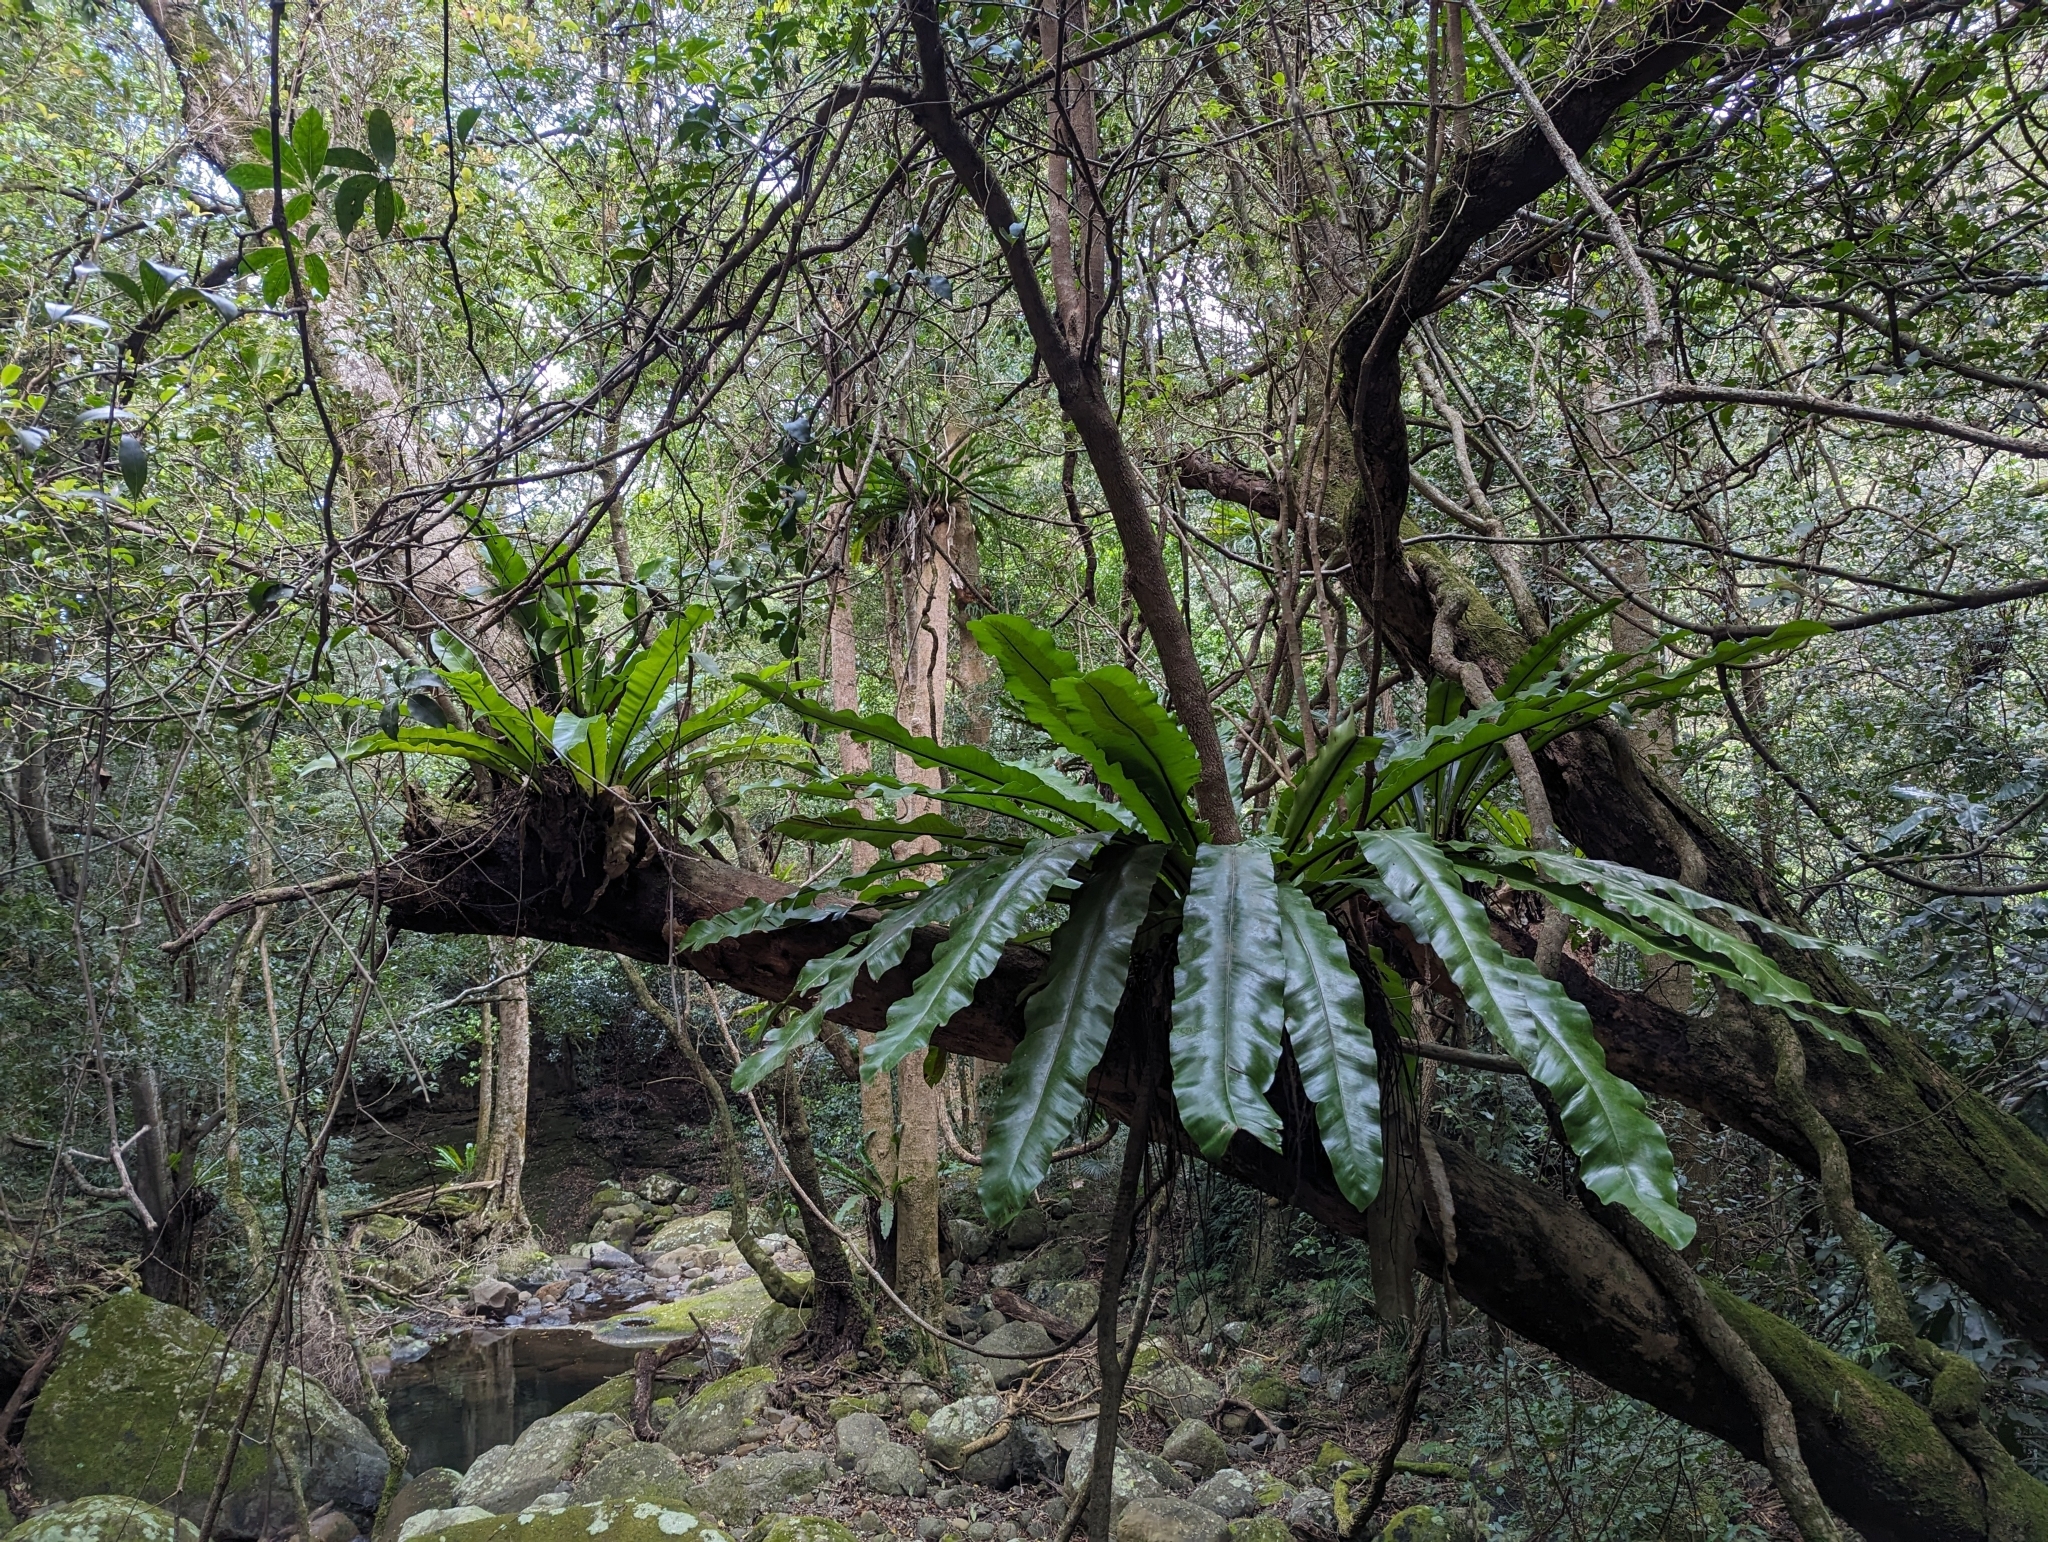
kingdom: Plantae
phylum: Tracheophyta
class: Polypodiopsida
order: Polypodiales
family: Aspleniaceae
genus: Asplenium
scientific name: Asplenium australasicum
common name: Bird's-nest fern
